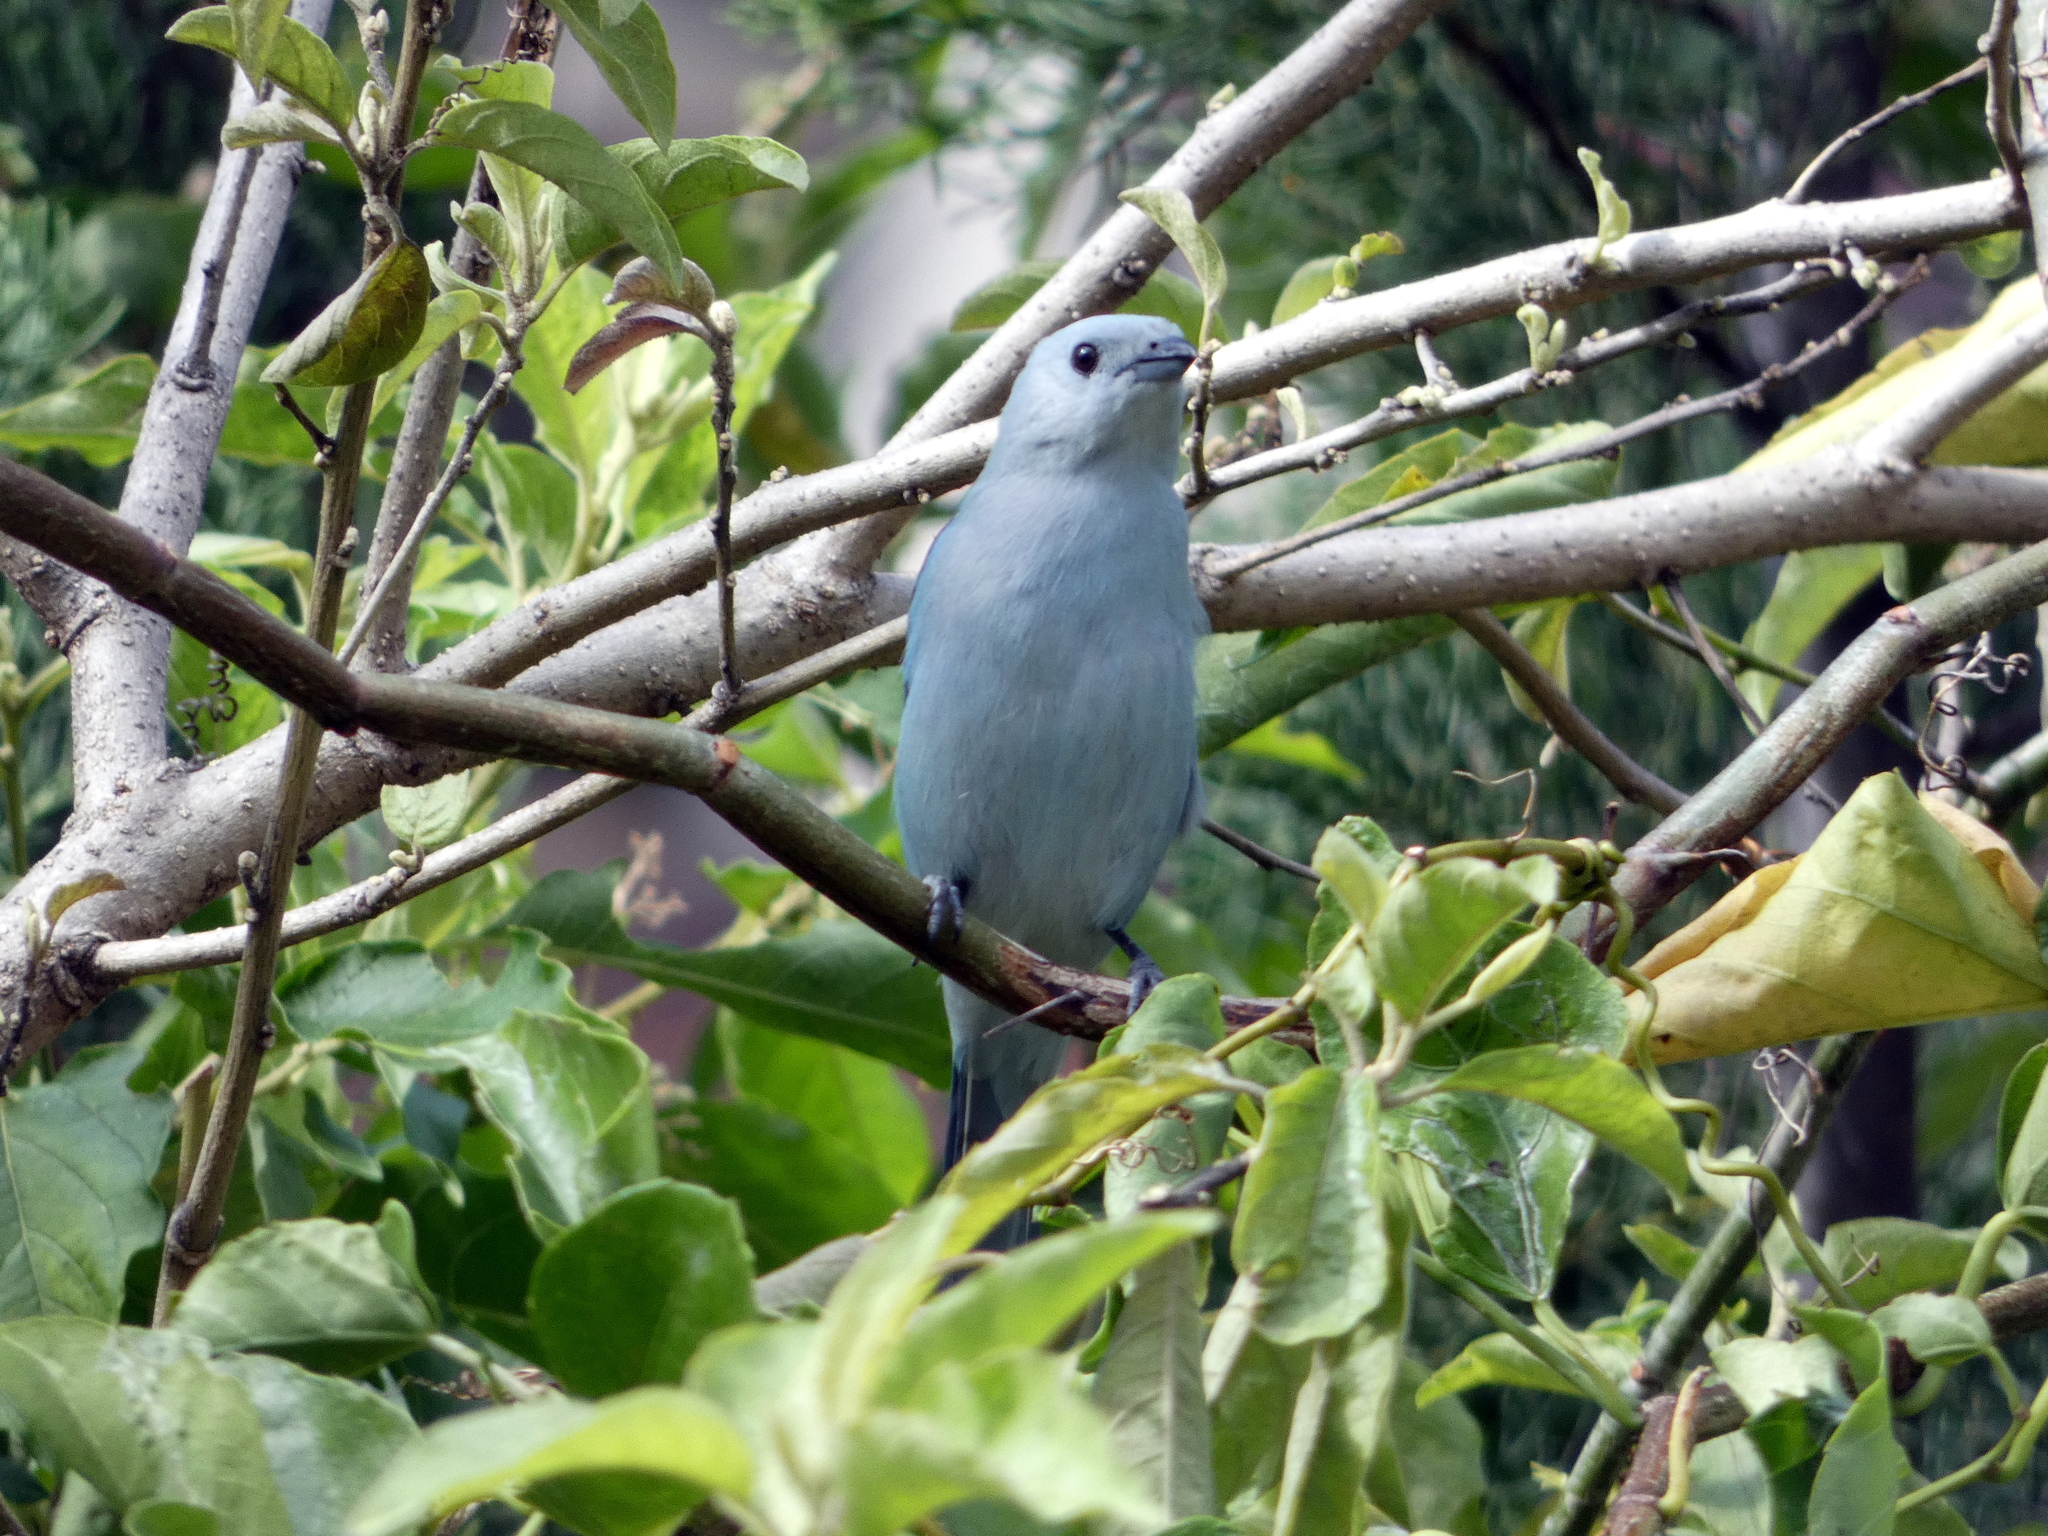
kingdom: Animalia
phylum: Chordata
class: Aves
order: Passeriformes
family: Thraupidae
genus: Thraupis
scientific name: Thraupis episcopus
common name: Blue-grey tanager
